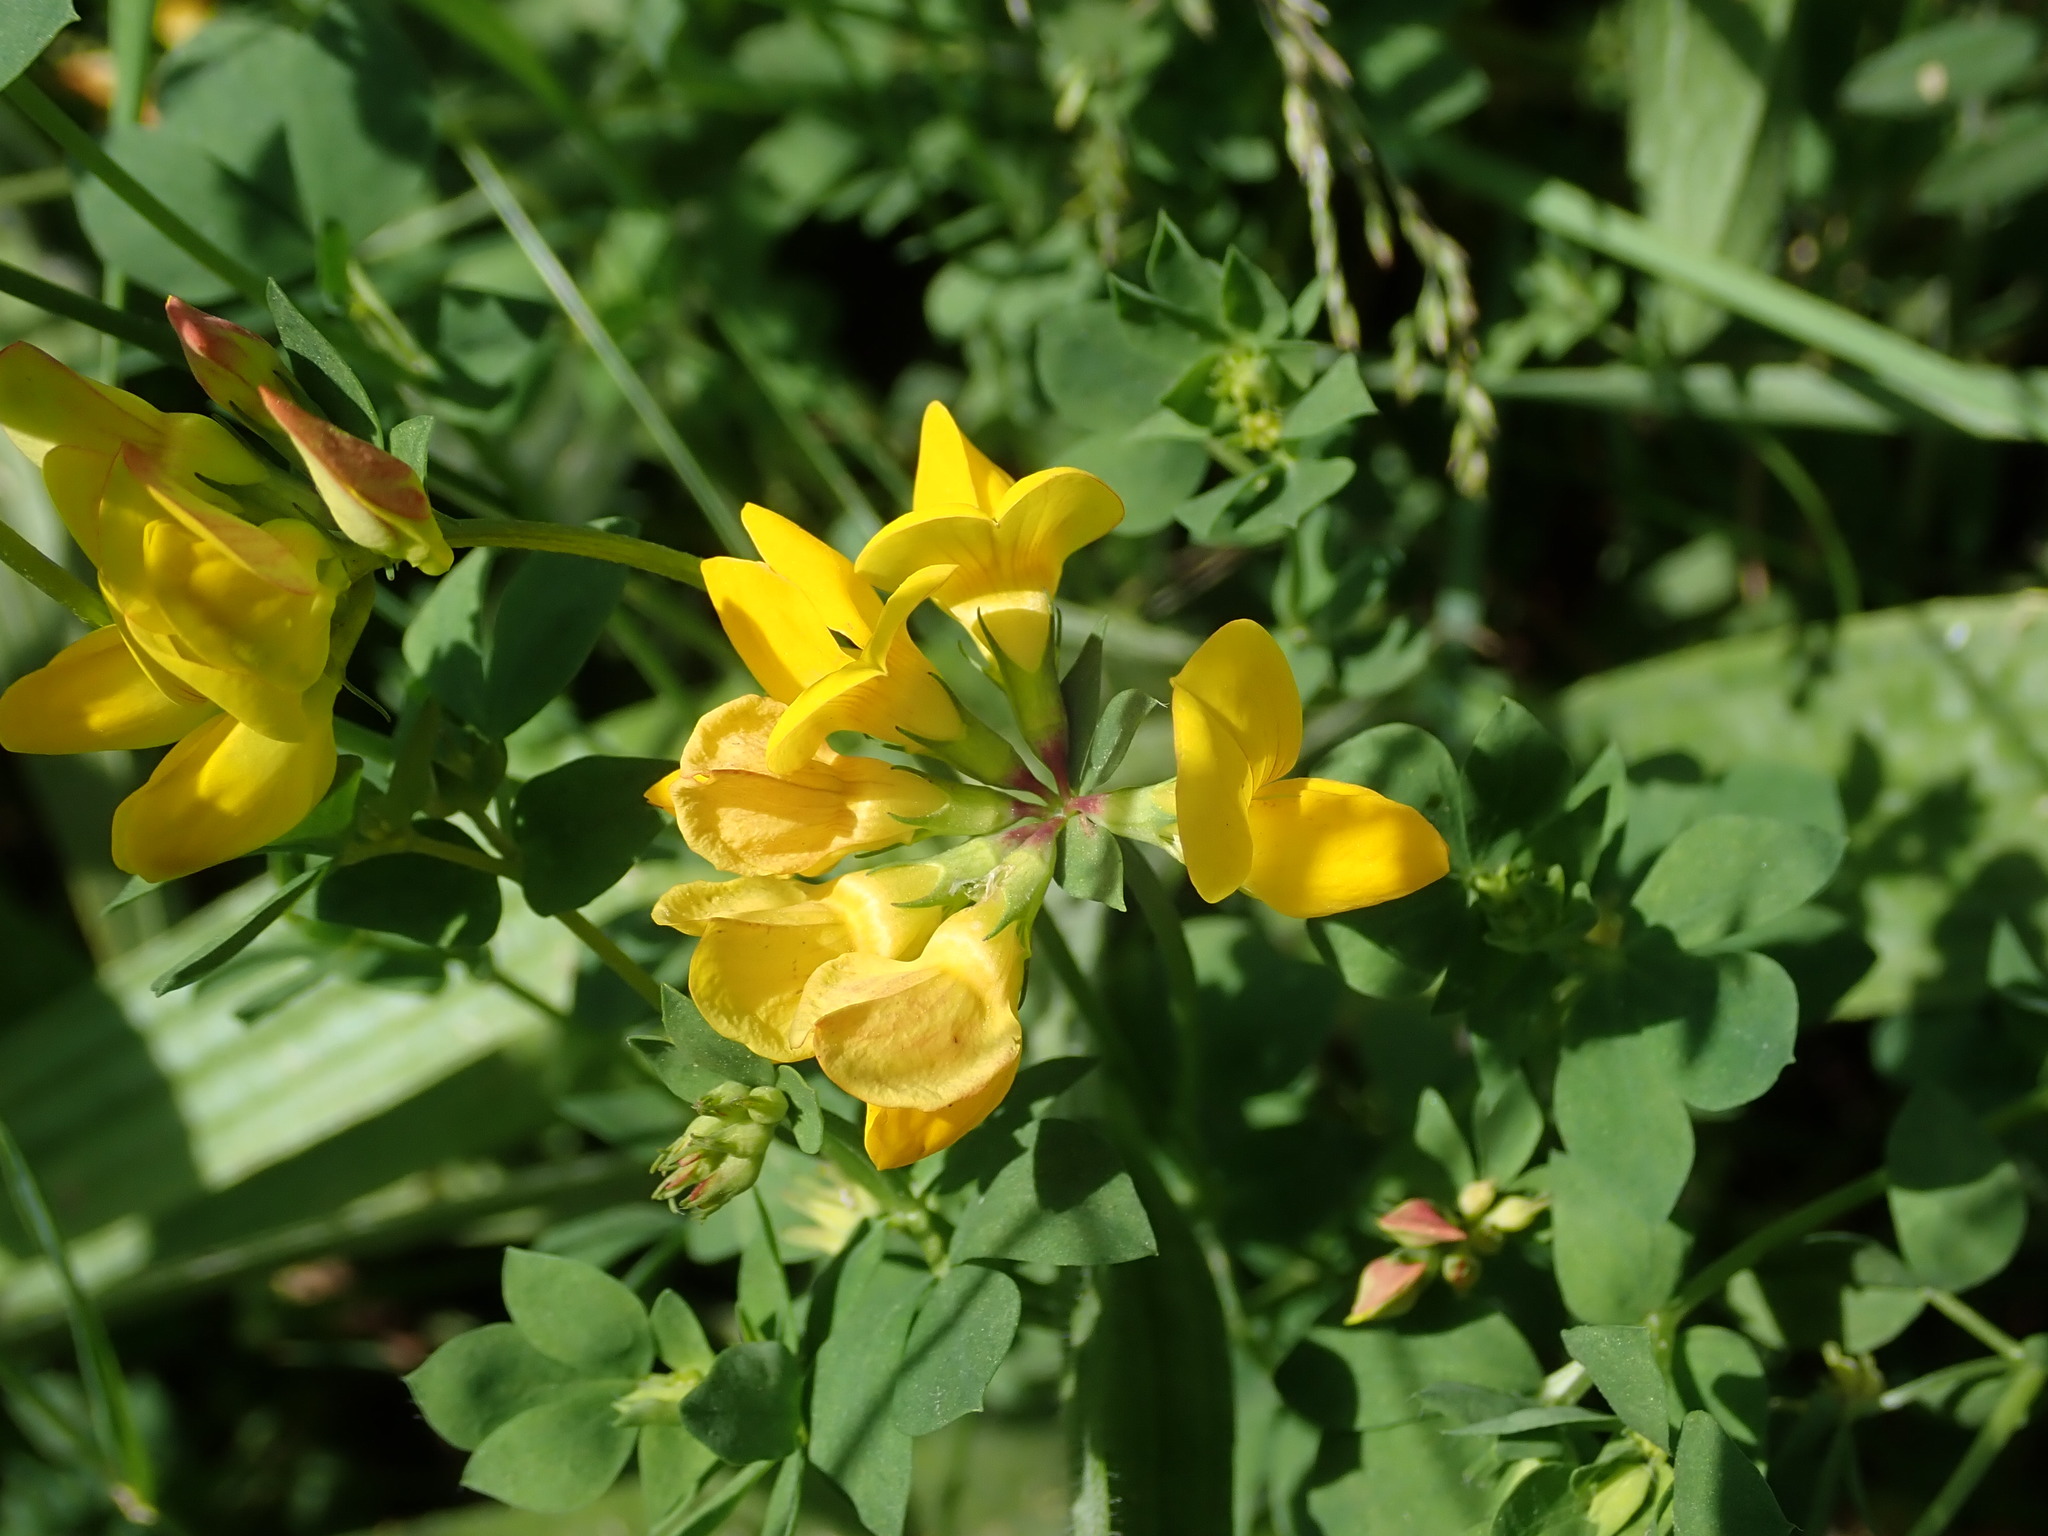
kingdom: Plantae
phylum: Tracheophyta
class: Magnoliopsida
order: Fabales
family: Fabaceae
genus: Lotus
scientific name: Lotus corniculatus
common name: Common bird's-foot-trefoil
